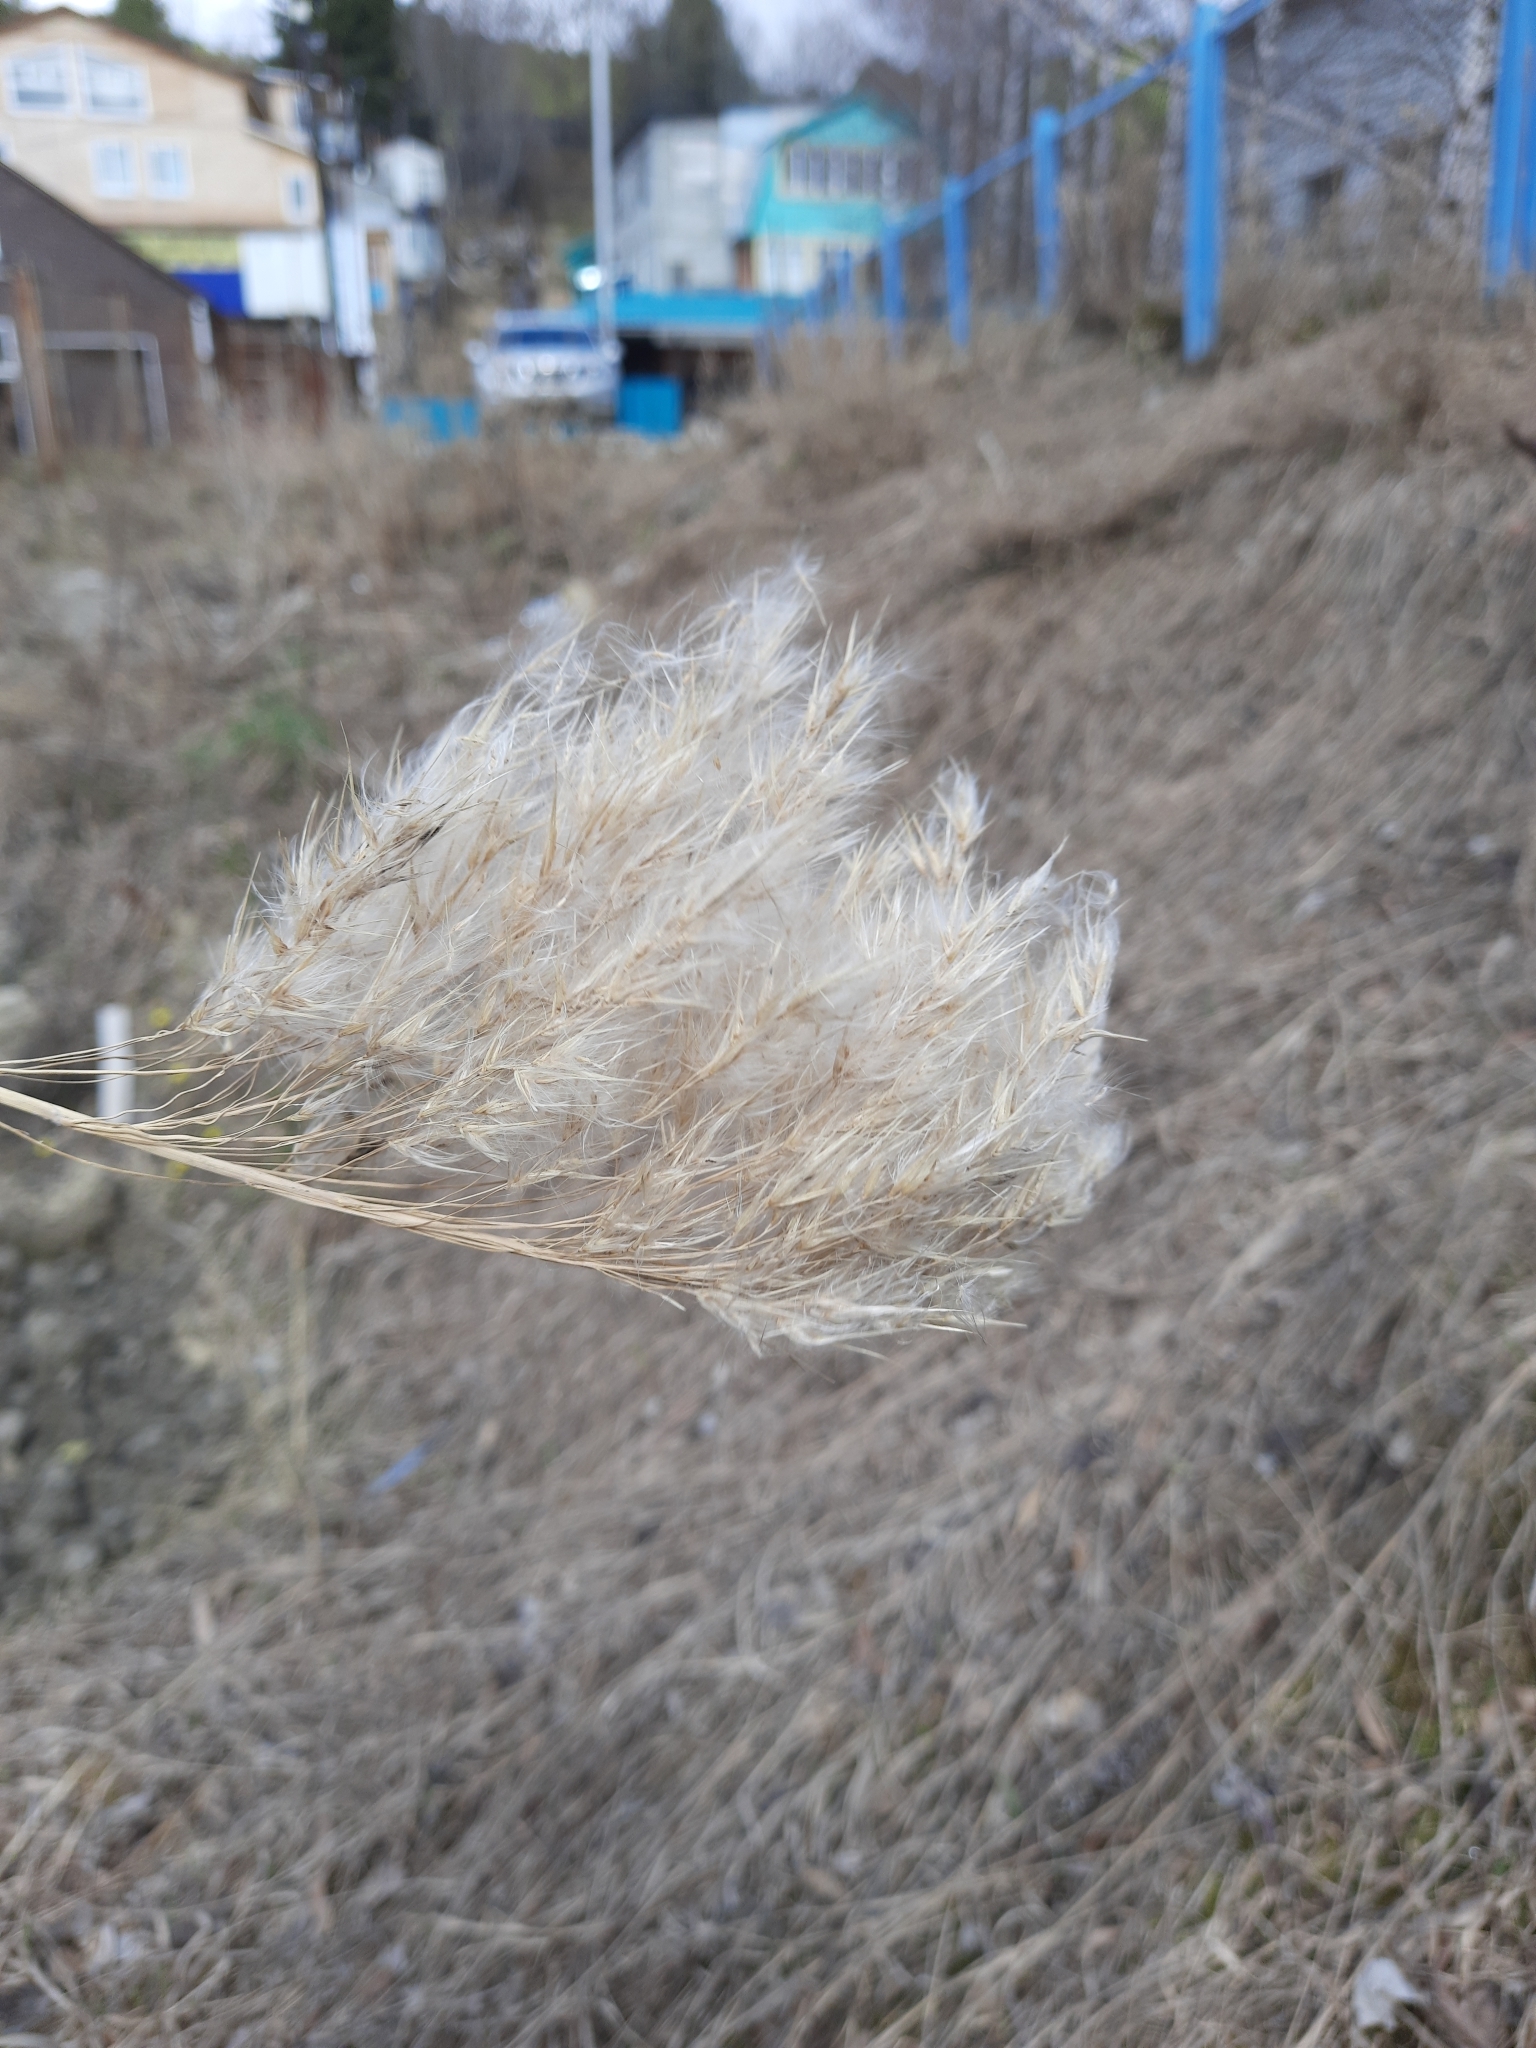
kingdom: Plantae
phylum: Tracheophyta
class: Liliopsida
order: Poales
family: Poaceae
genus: Phragmites
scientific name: Phragmites australis
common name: Common reed
